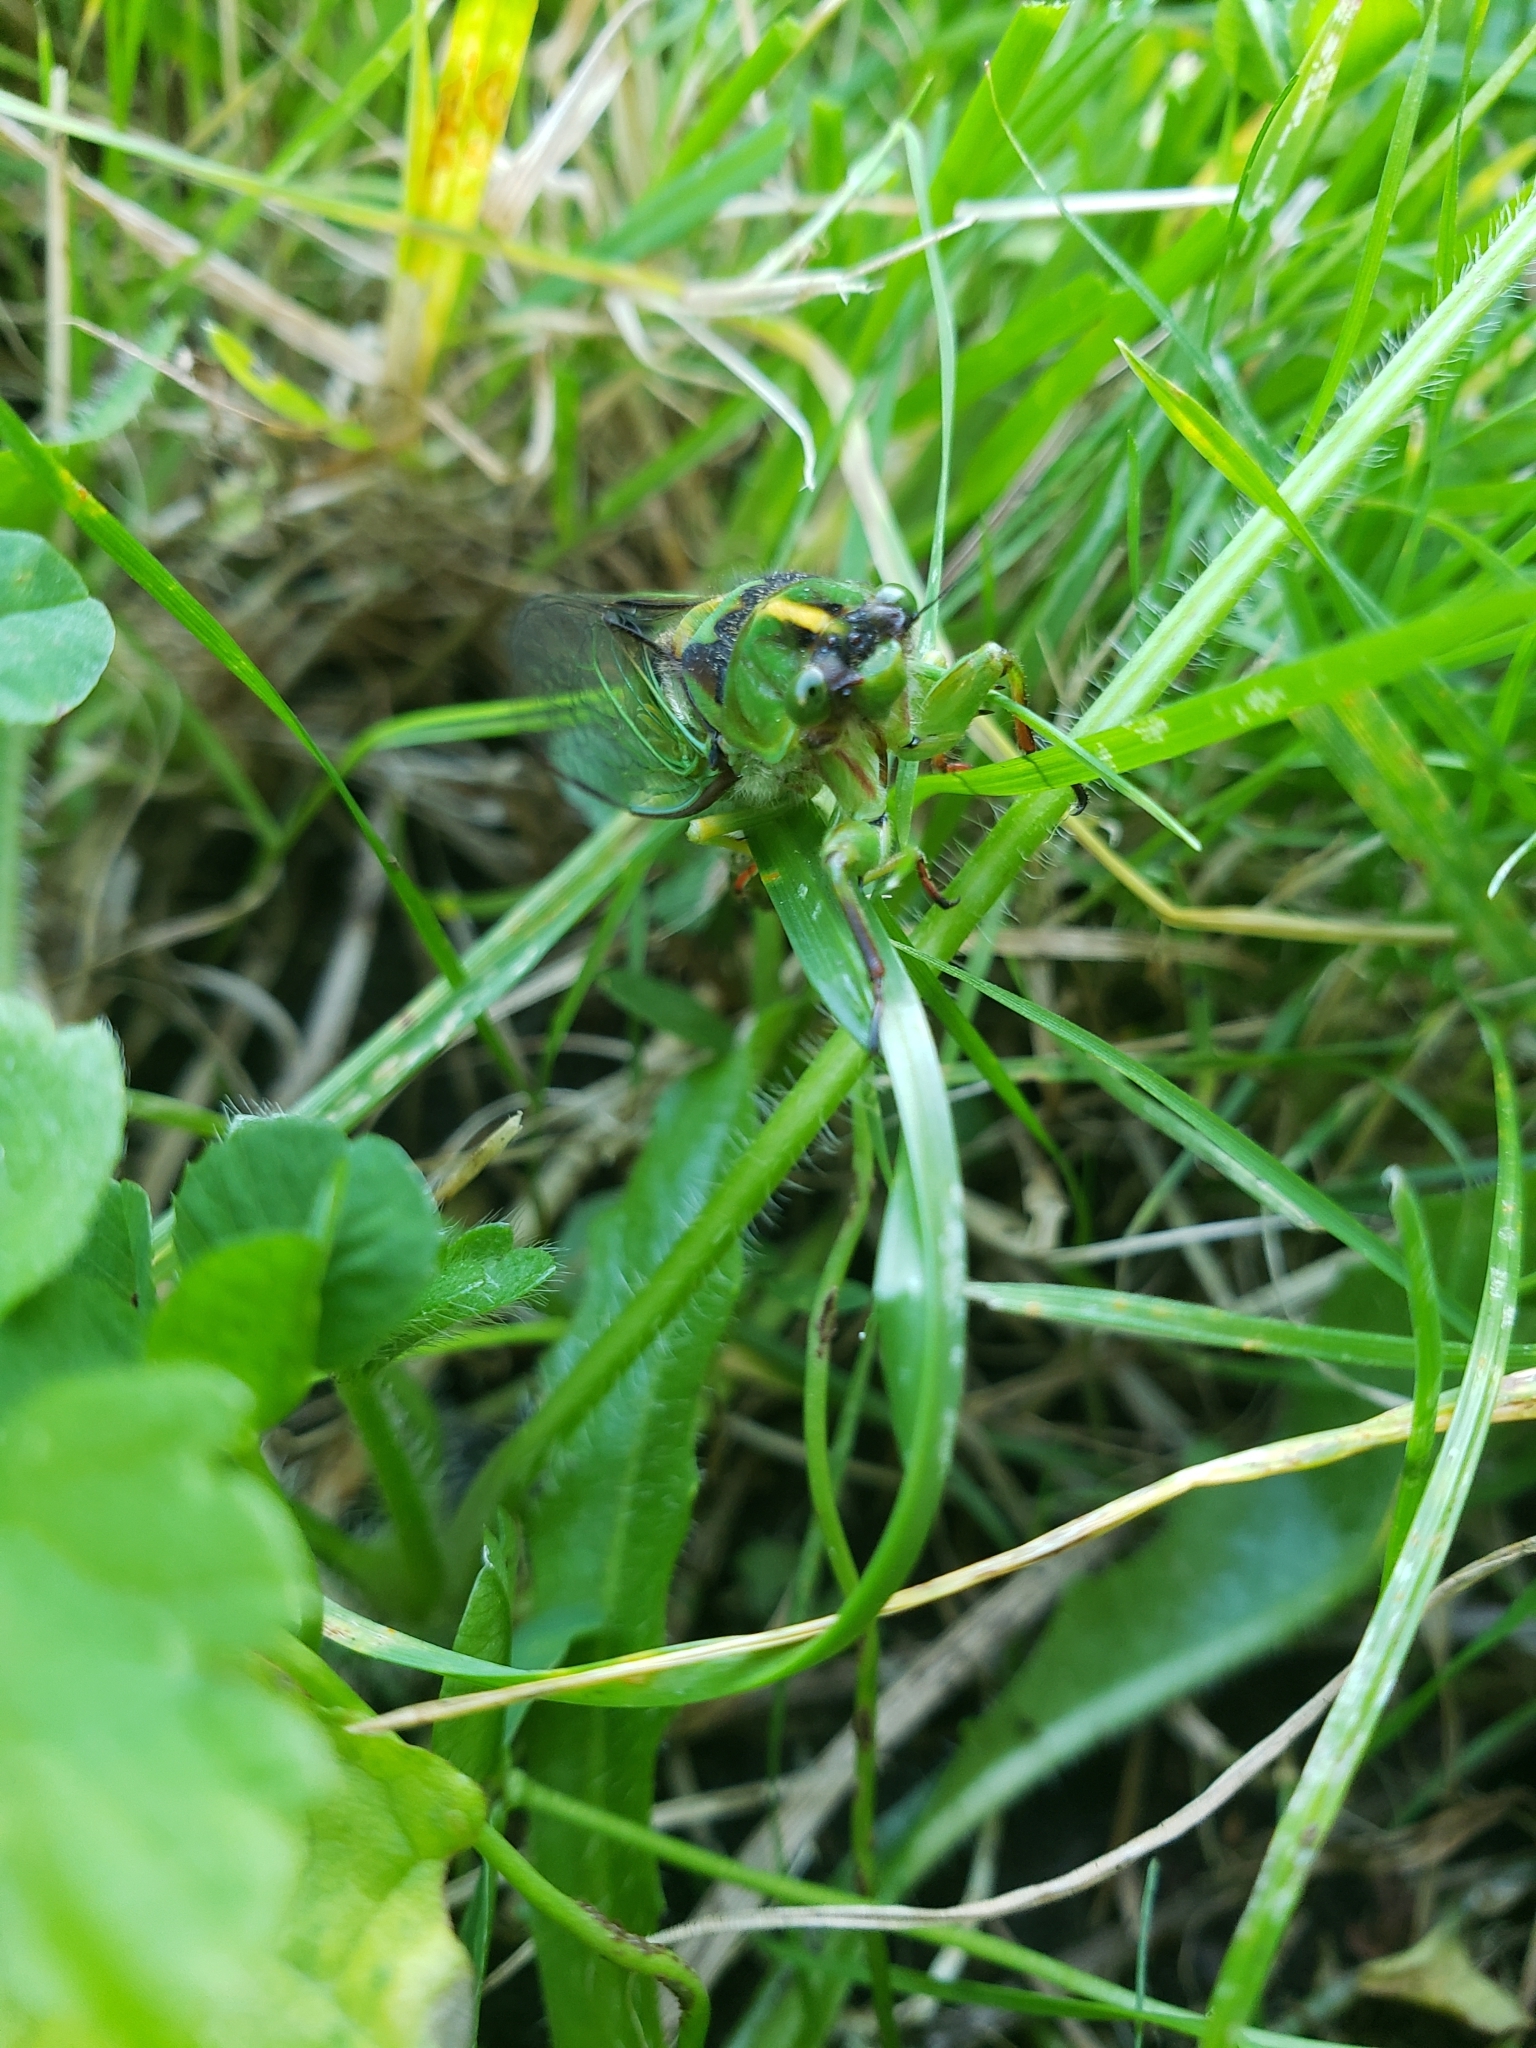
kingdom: Animalia
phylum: Arthropoda
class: Insecta
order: Hemiptera
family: Cicadidae
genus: Kikihia
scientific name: Kikihia subalpina
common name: Chathams cicada
